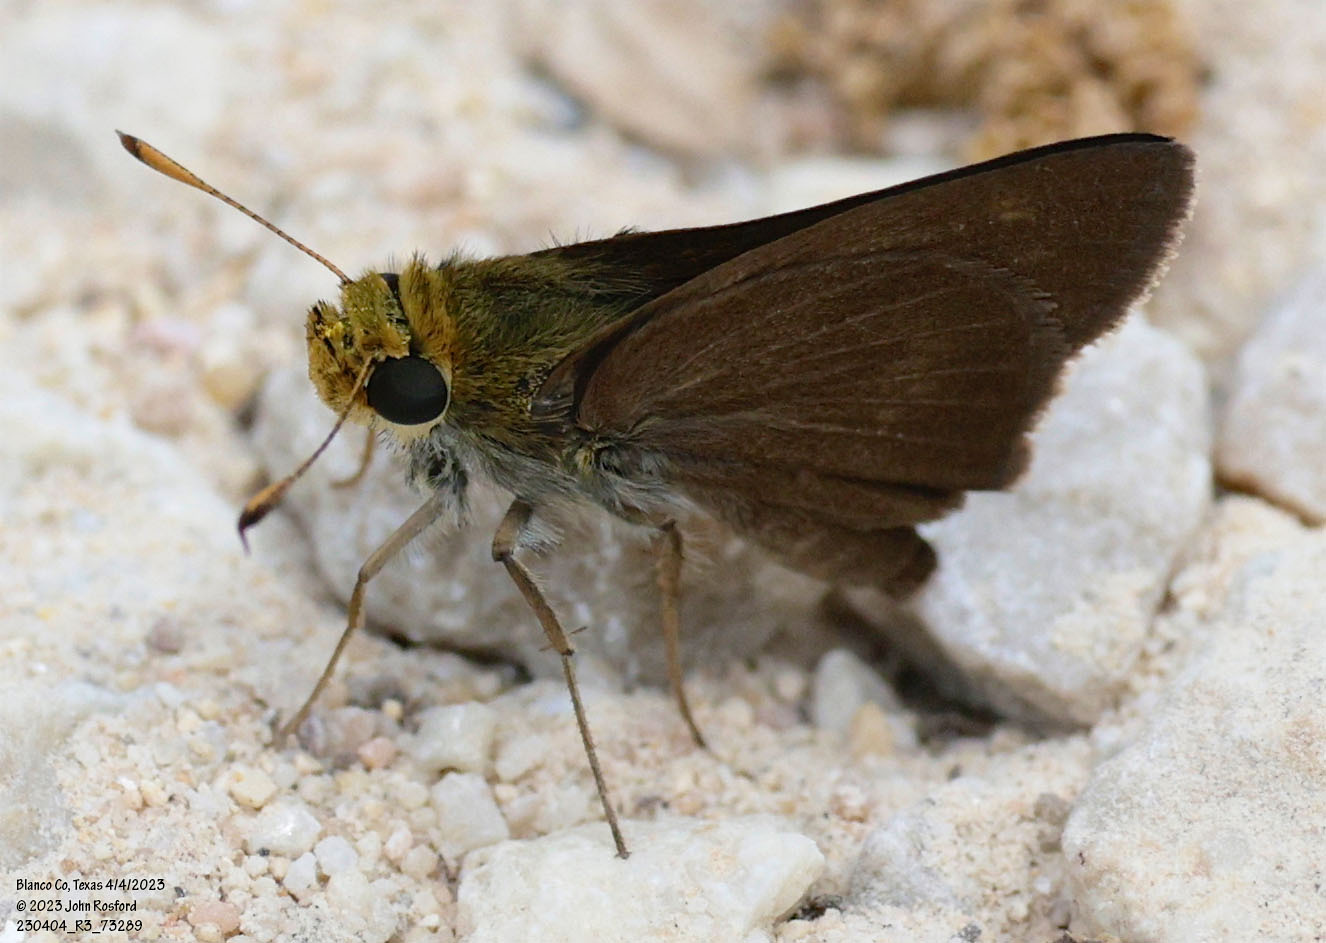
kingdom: Animalia
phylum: Arthropoda
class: Insecta
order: Lepidoptera
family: Hesperiidae
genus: Euphyes
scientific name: Euphyes vestris
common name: Dun skipper
